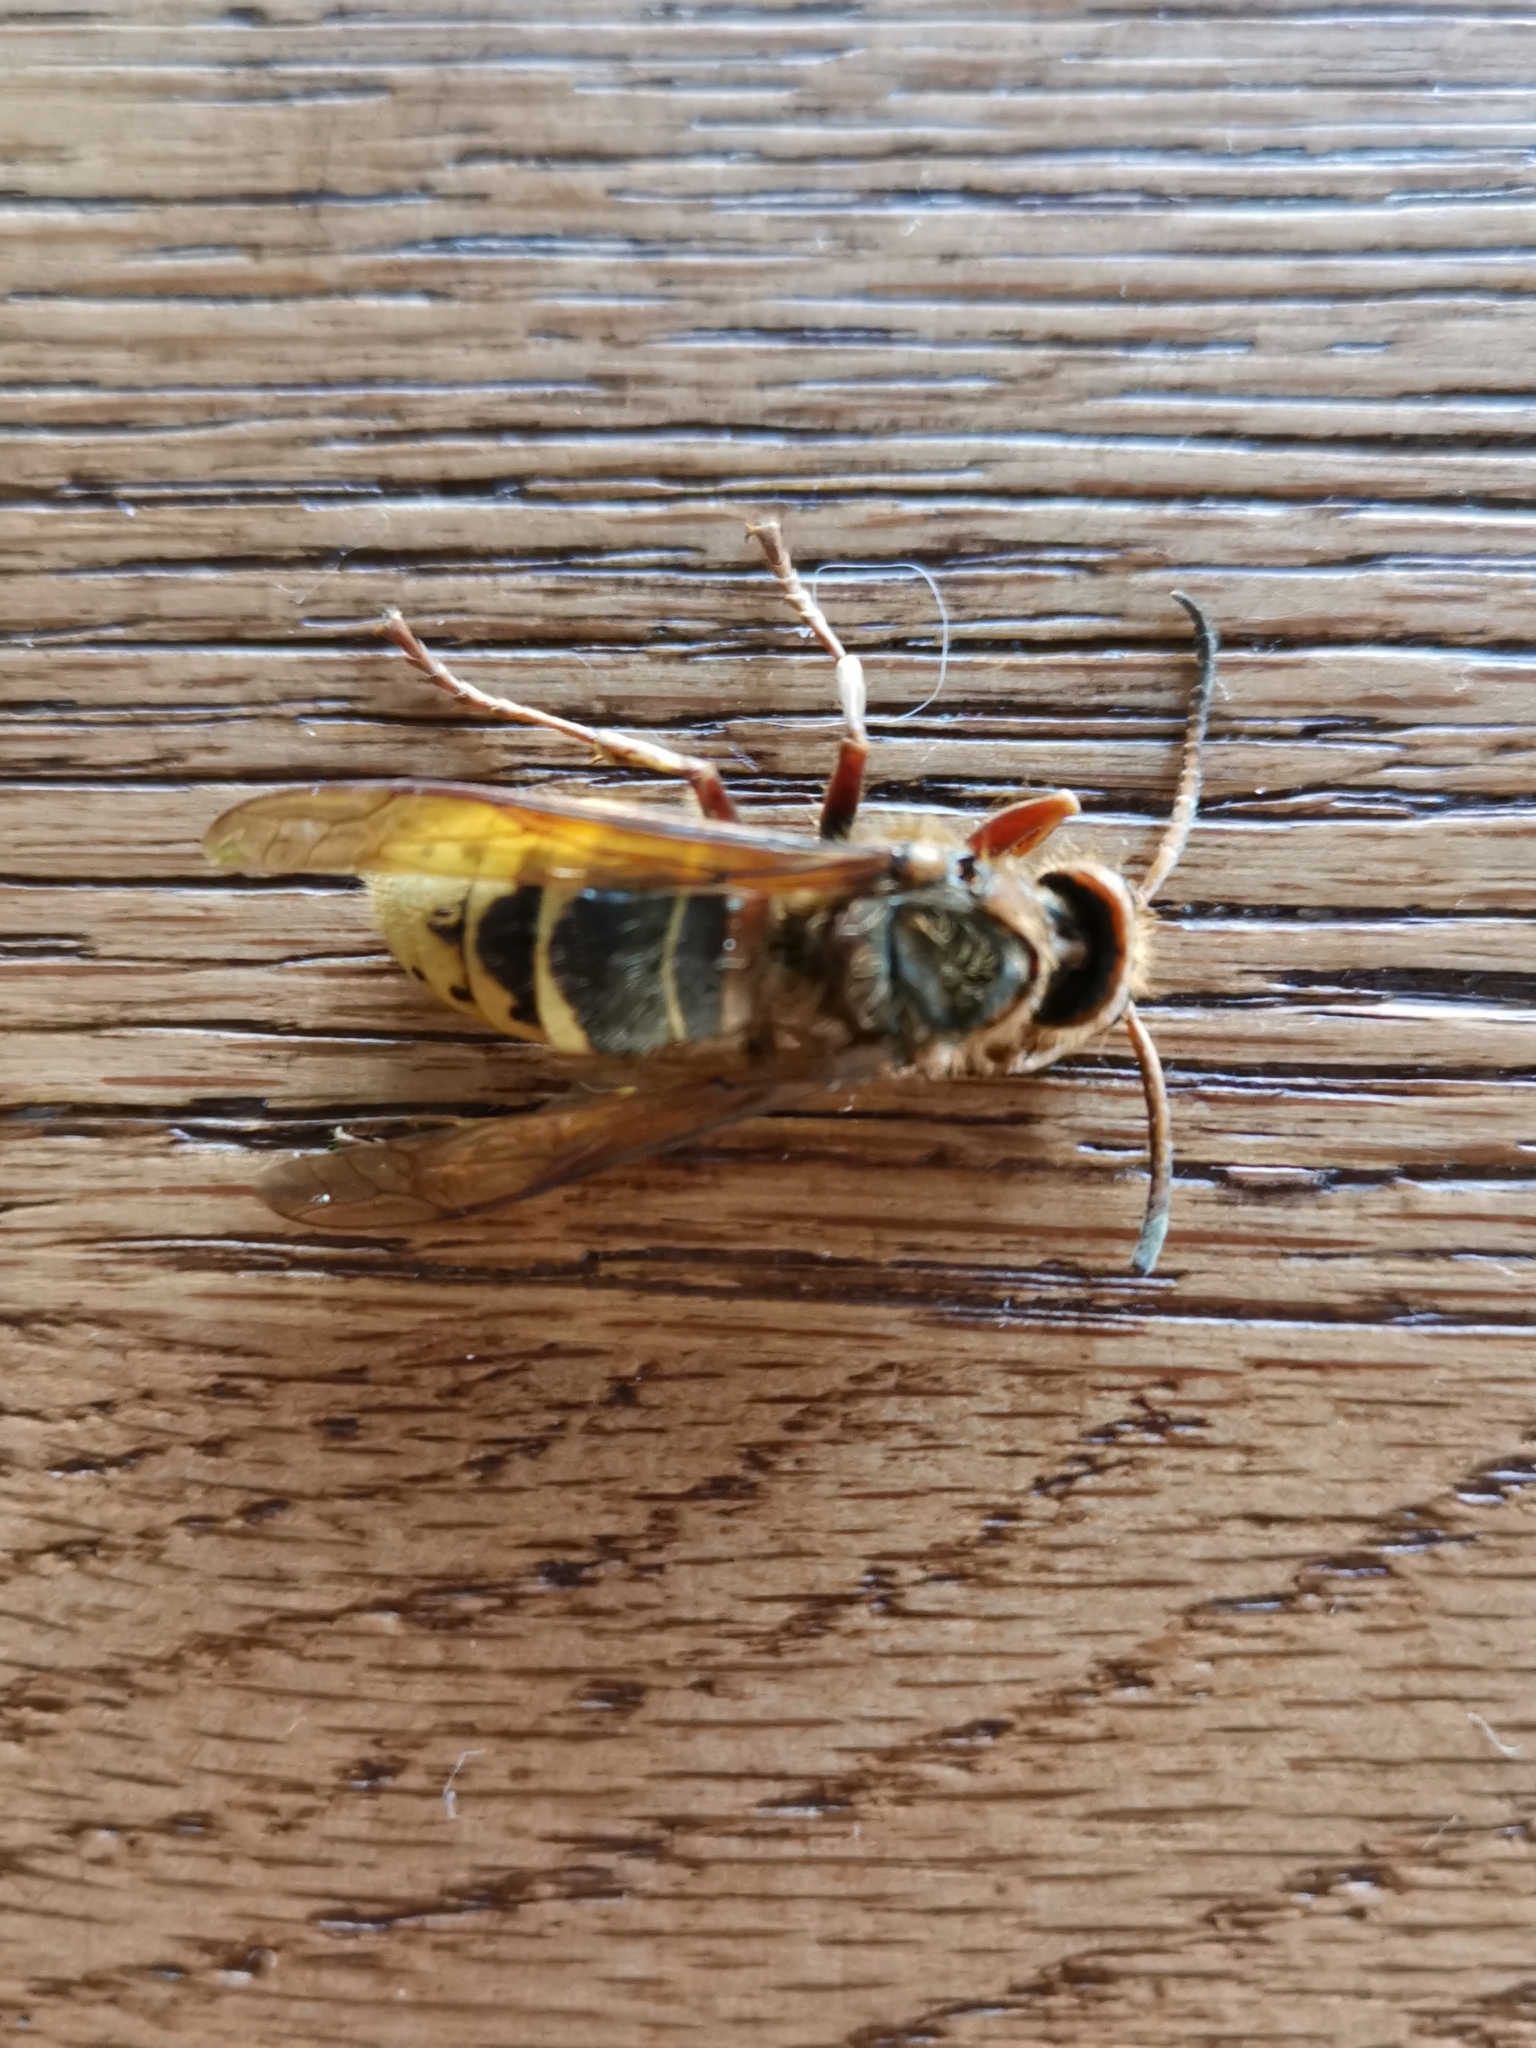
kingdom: Animalia
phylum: Arthropoda
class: Insecta
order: Hymenoptera
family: Vespidae
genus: Vespa
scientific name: Vespa crabro
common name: Hornet
